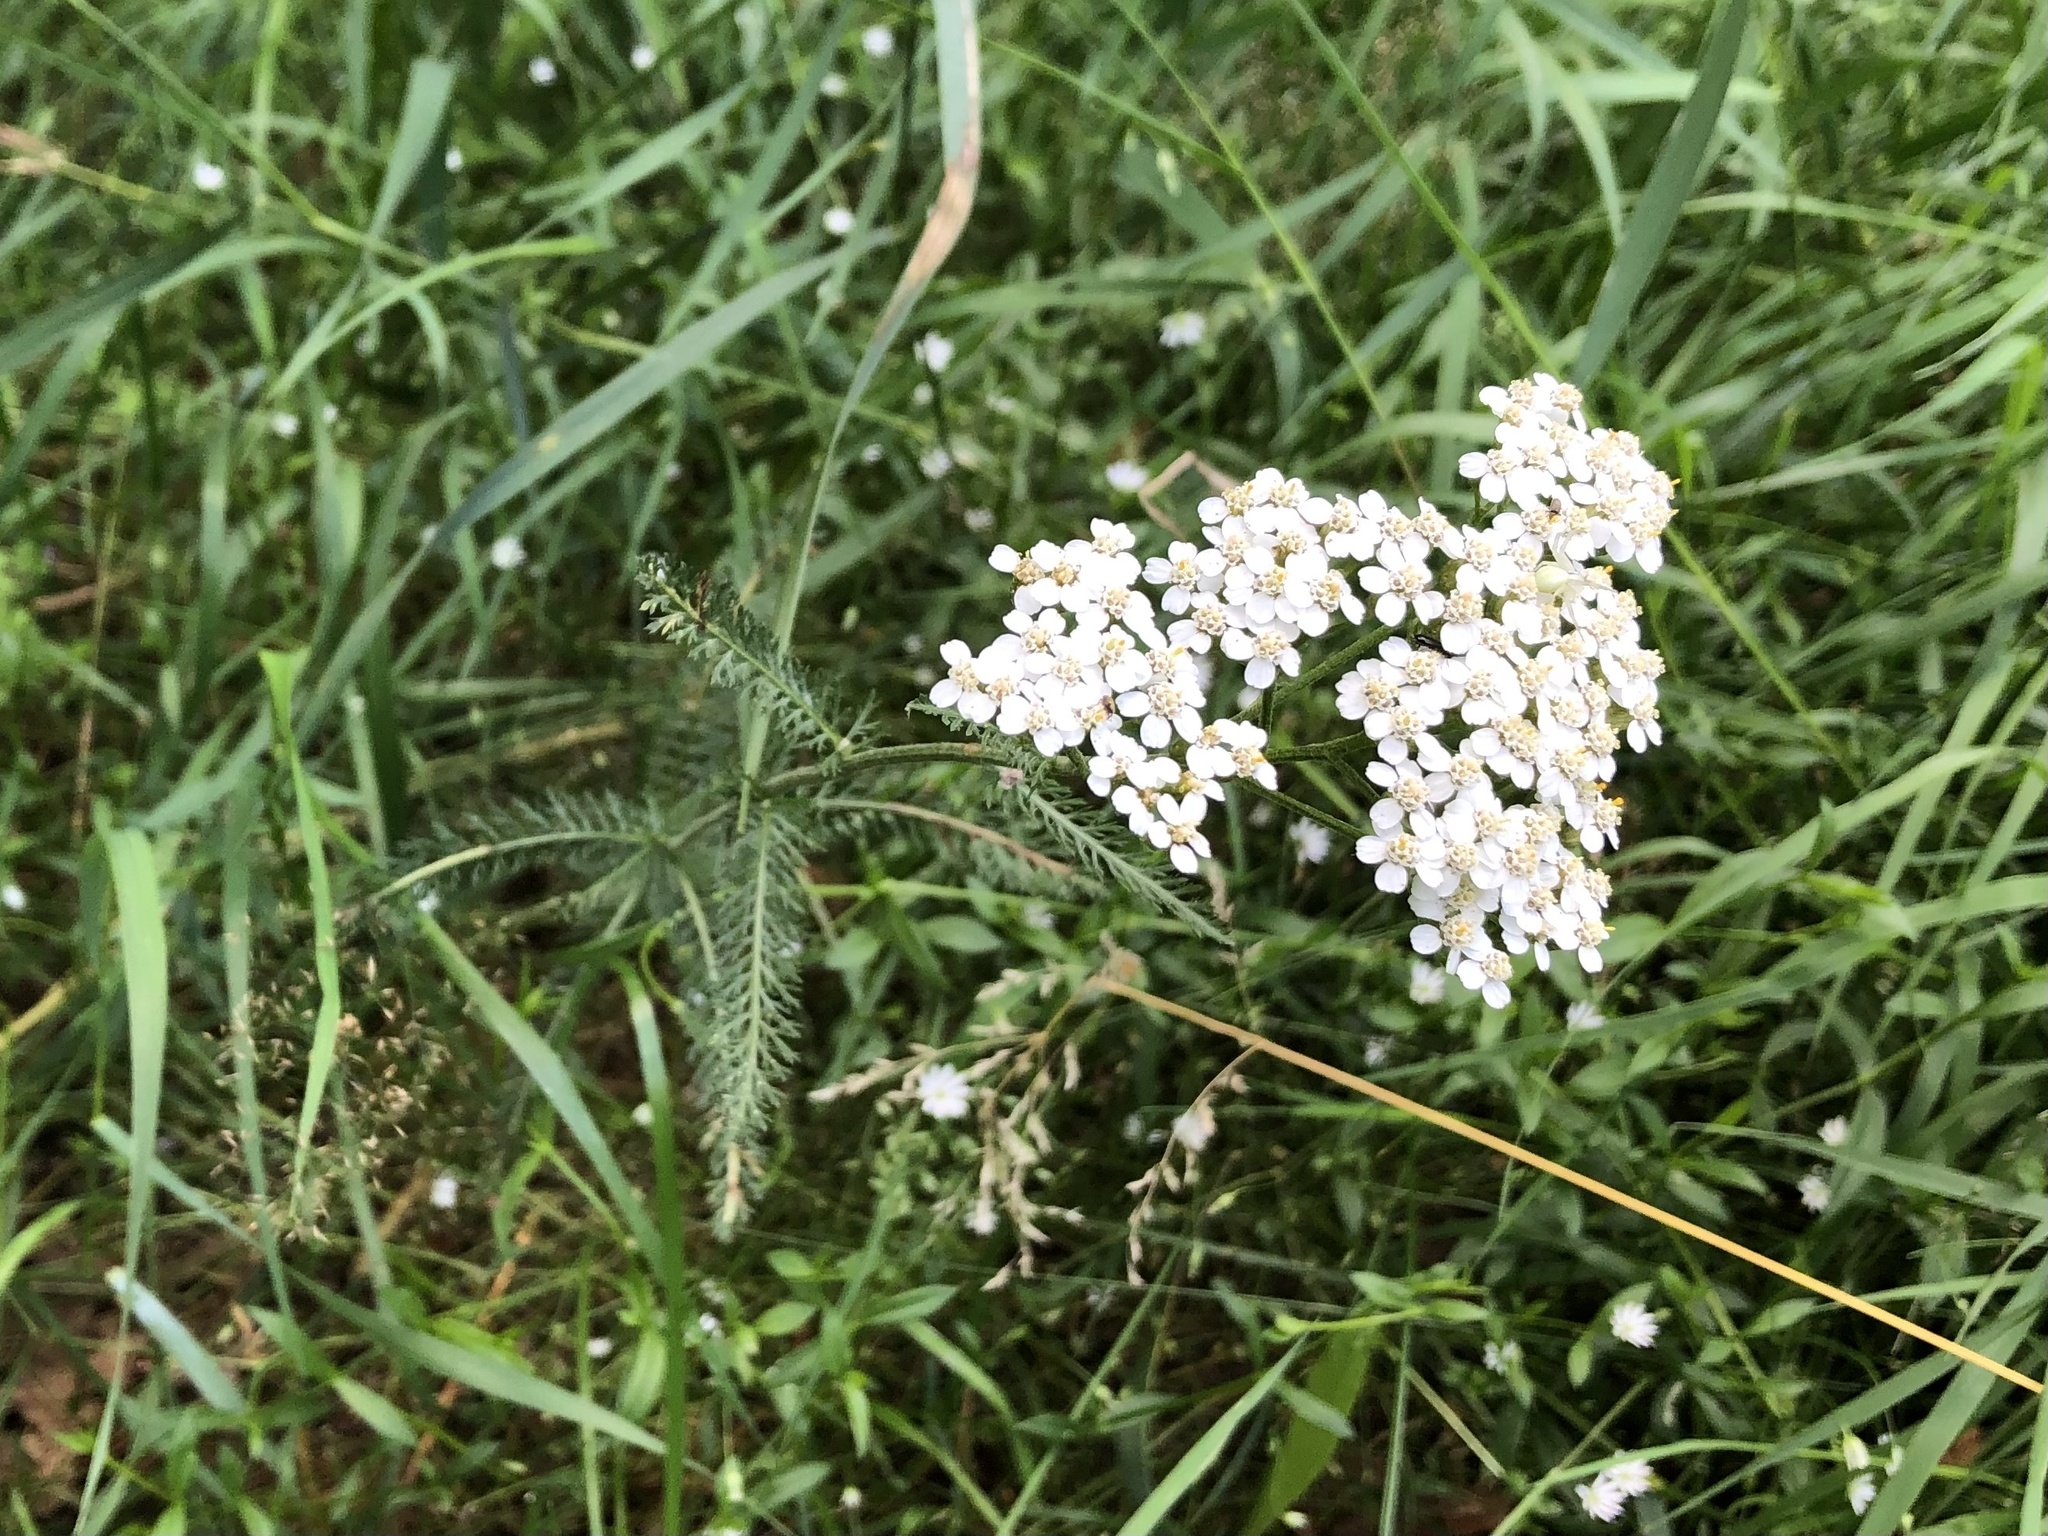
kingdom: Plantae
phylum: Tracheophyta
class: Magnoliopsida
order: Asterales
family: Asteraceae
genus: Achillea
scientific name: Achillea millefolium
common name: Yarrow
